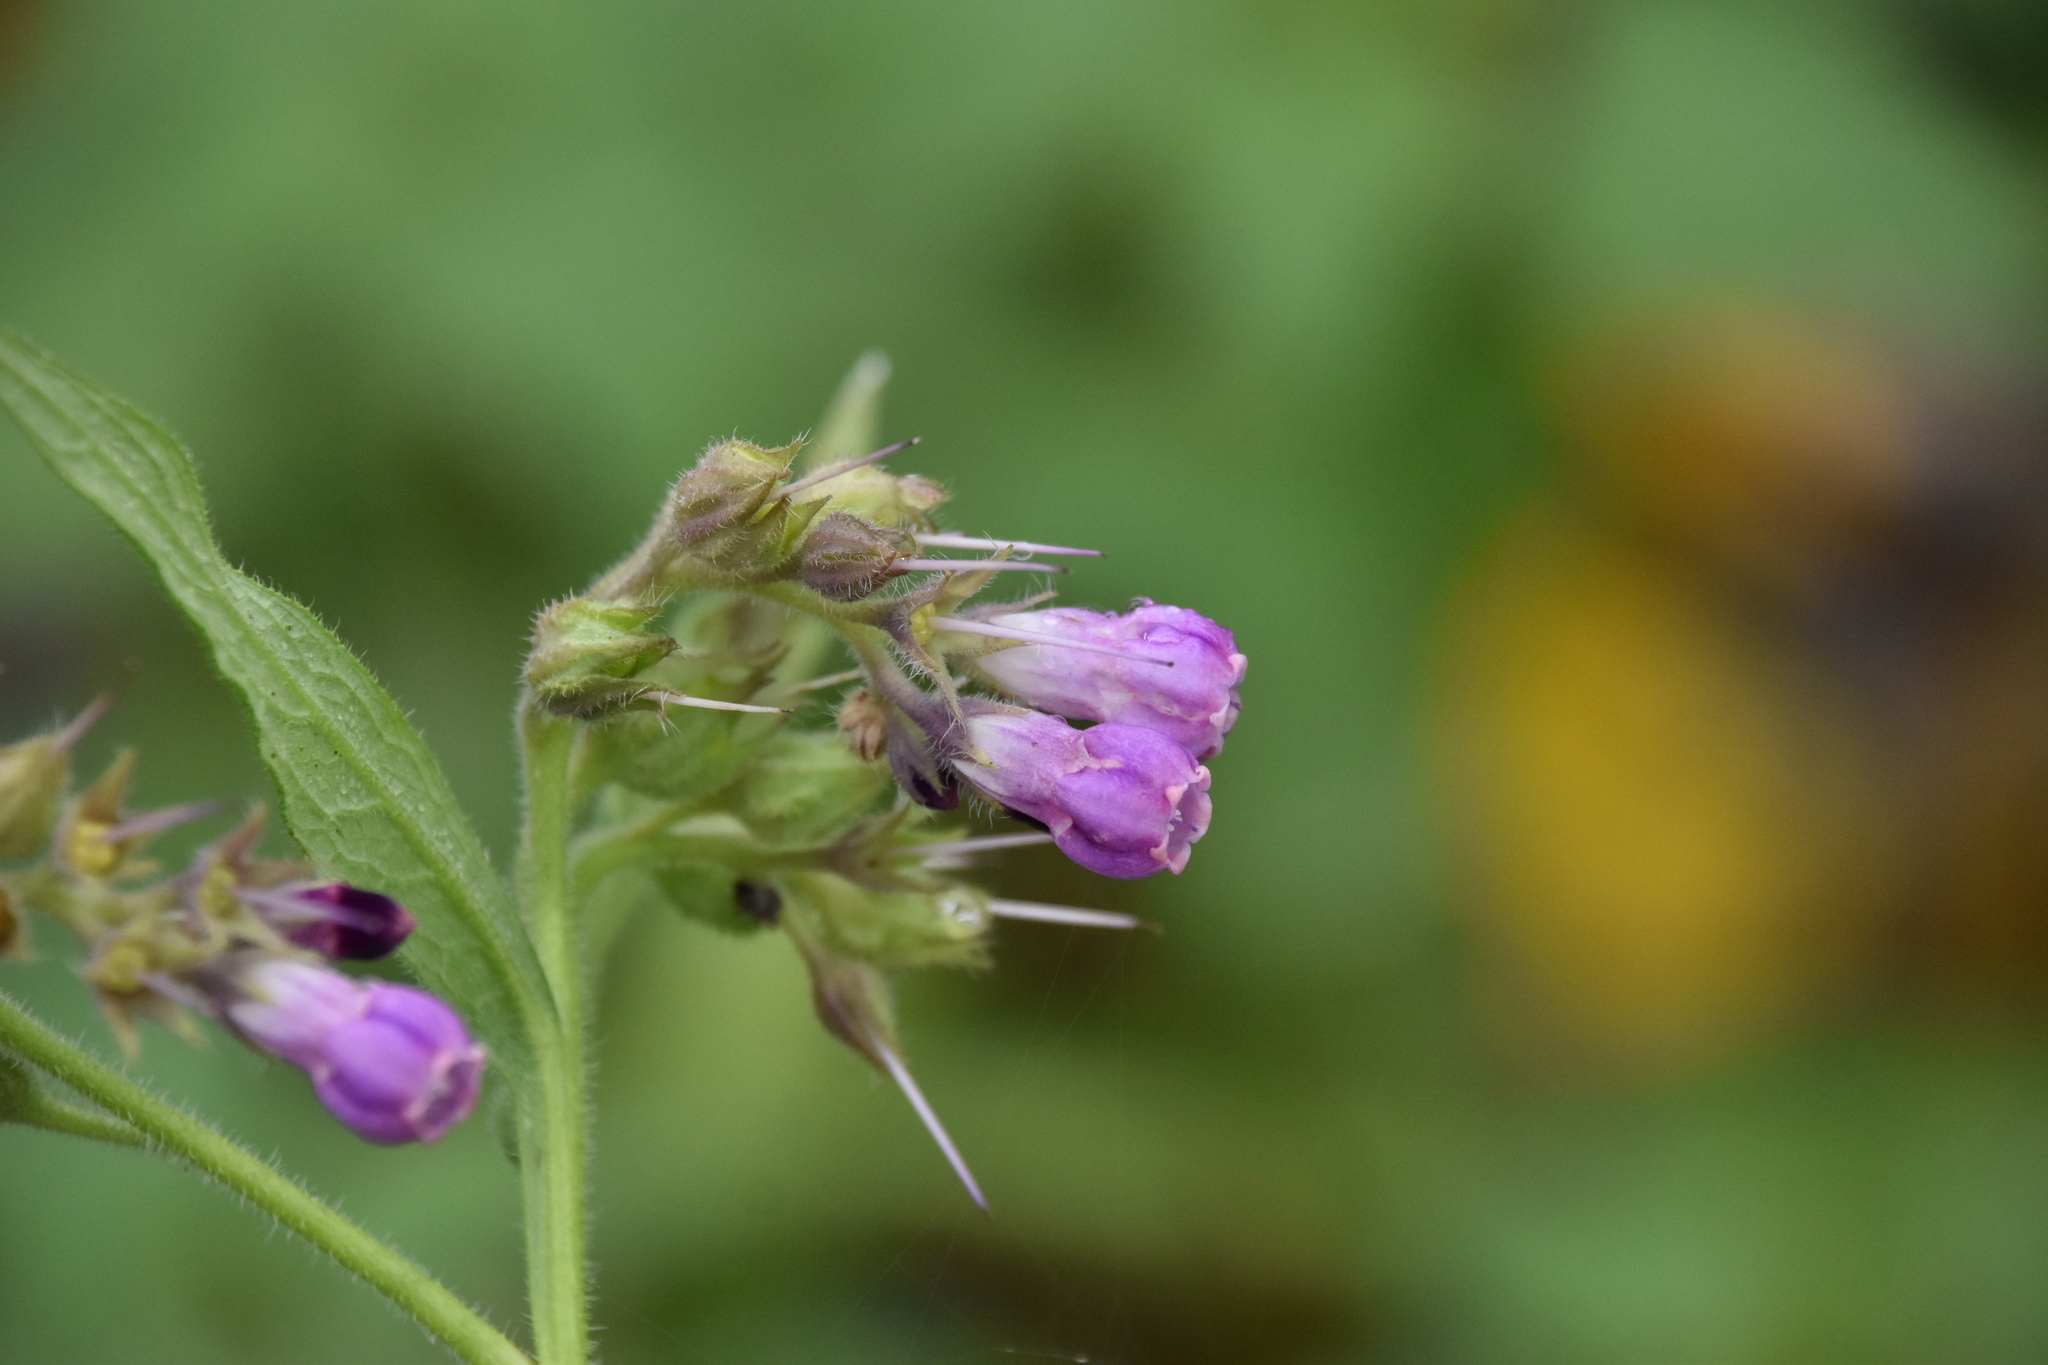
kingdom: Plantae
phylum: Tracheophyta
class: Magnoliopsida
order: Boraginales
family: Boraginaceae
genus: Symphytum
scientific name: Symphytum officinale
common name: Common comfrey
